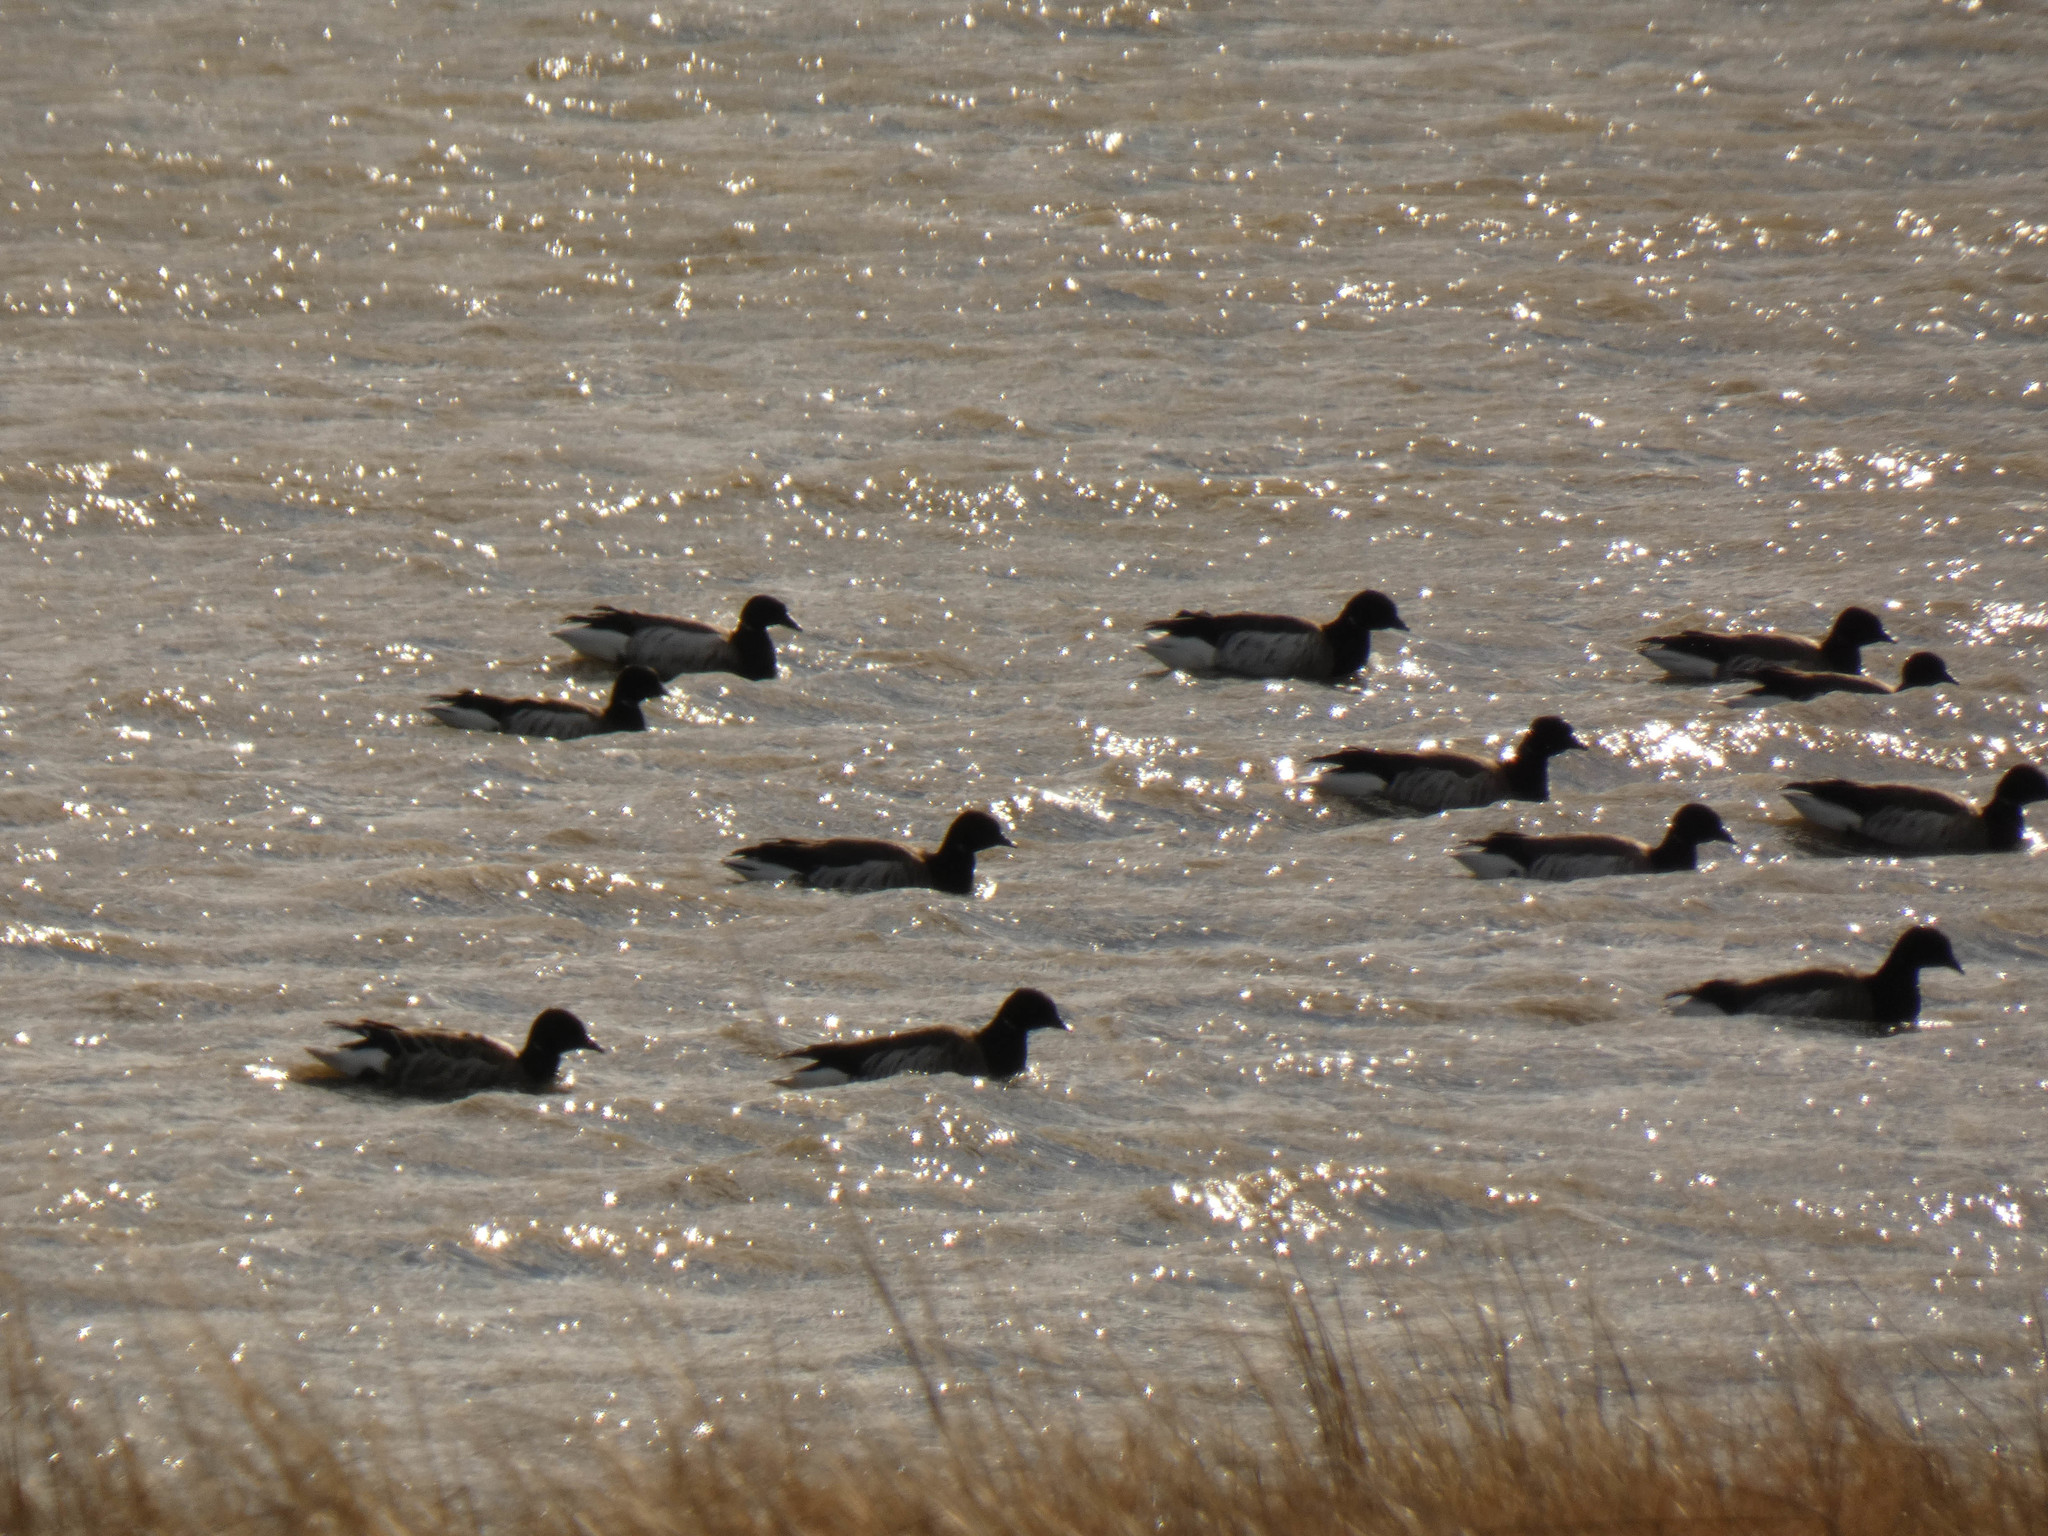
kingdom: Animalia
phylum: Chordata
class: Aves
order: Anseriformes
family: Anatidae
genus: Branta
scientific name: Branta bernicla
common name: Brant goose
